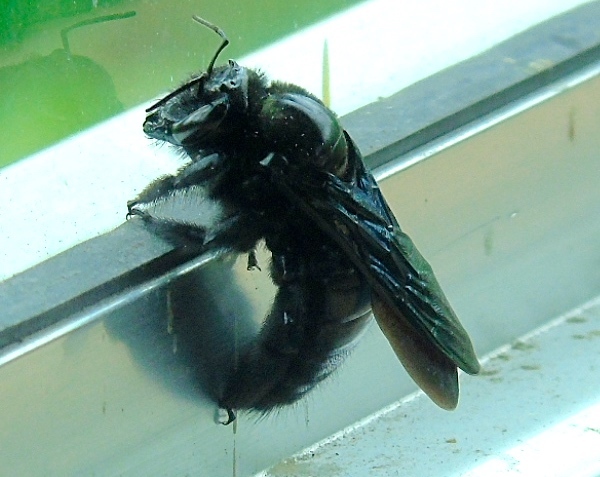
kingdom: Animalia
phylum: Arthropoda
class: Insecta
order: Hymenoptera
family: Apidae
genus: Xylocopa
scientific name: Xylocopa fimbriata
